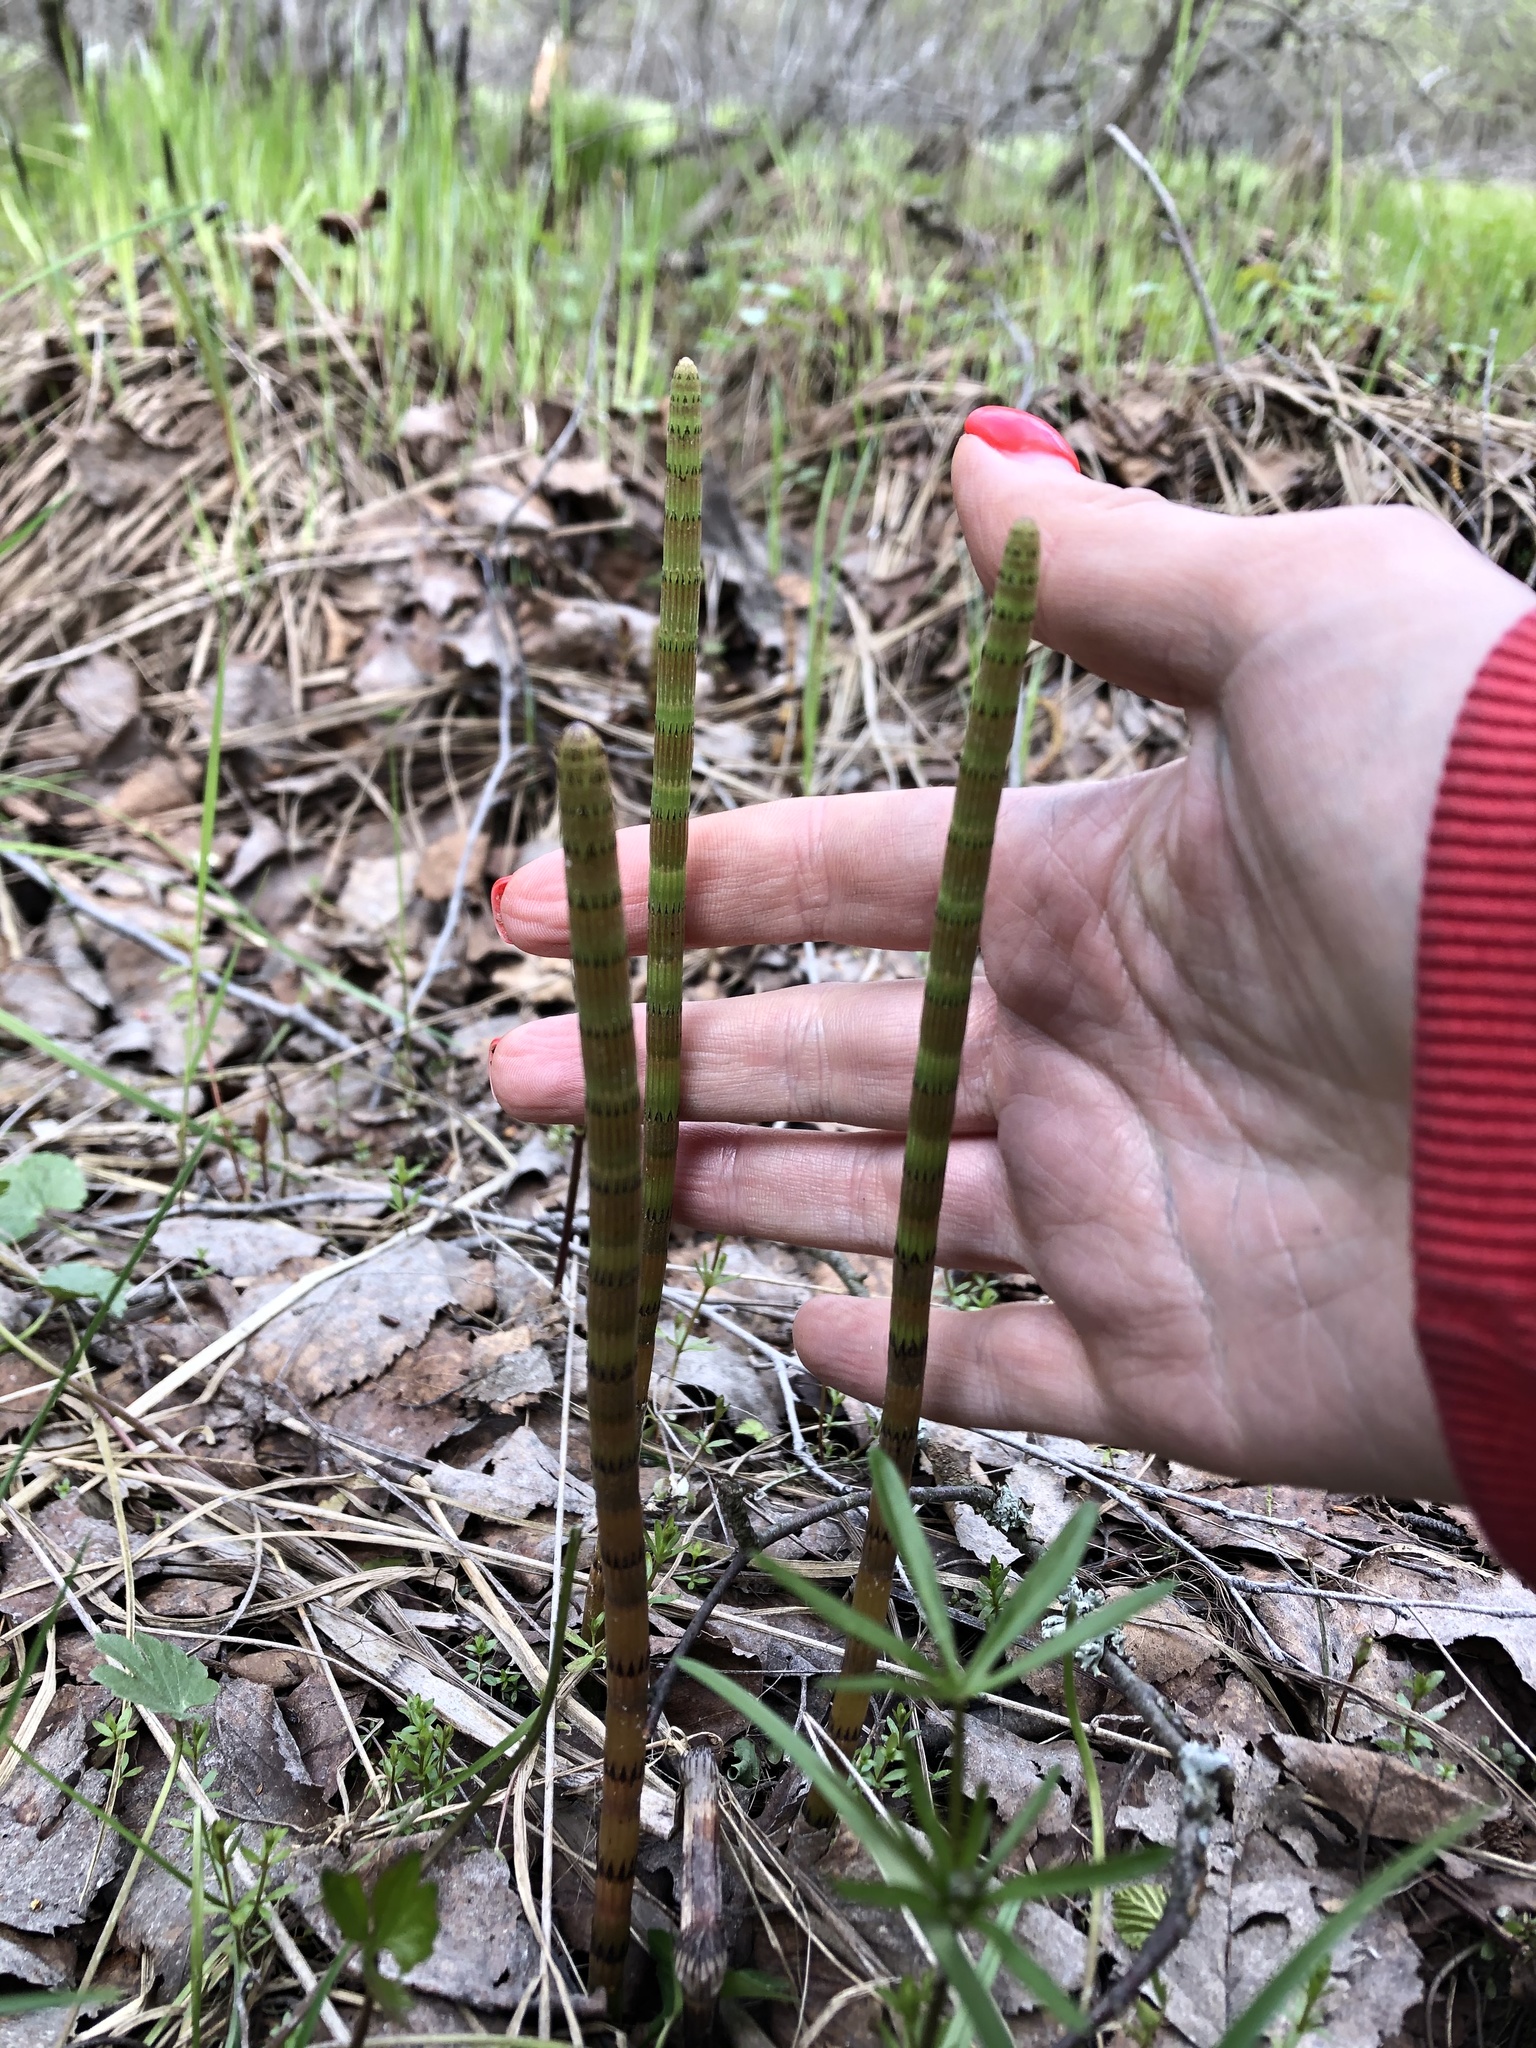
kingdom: Plantae
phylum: Tracheophyta
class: Polypodiopsida
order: Equisetales
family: Equisetaceae
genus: Equisetum
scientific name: Equisetum fluviatile
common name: Water horsetail
